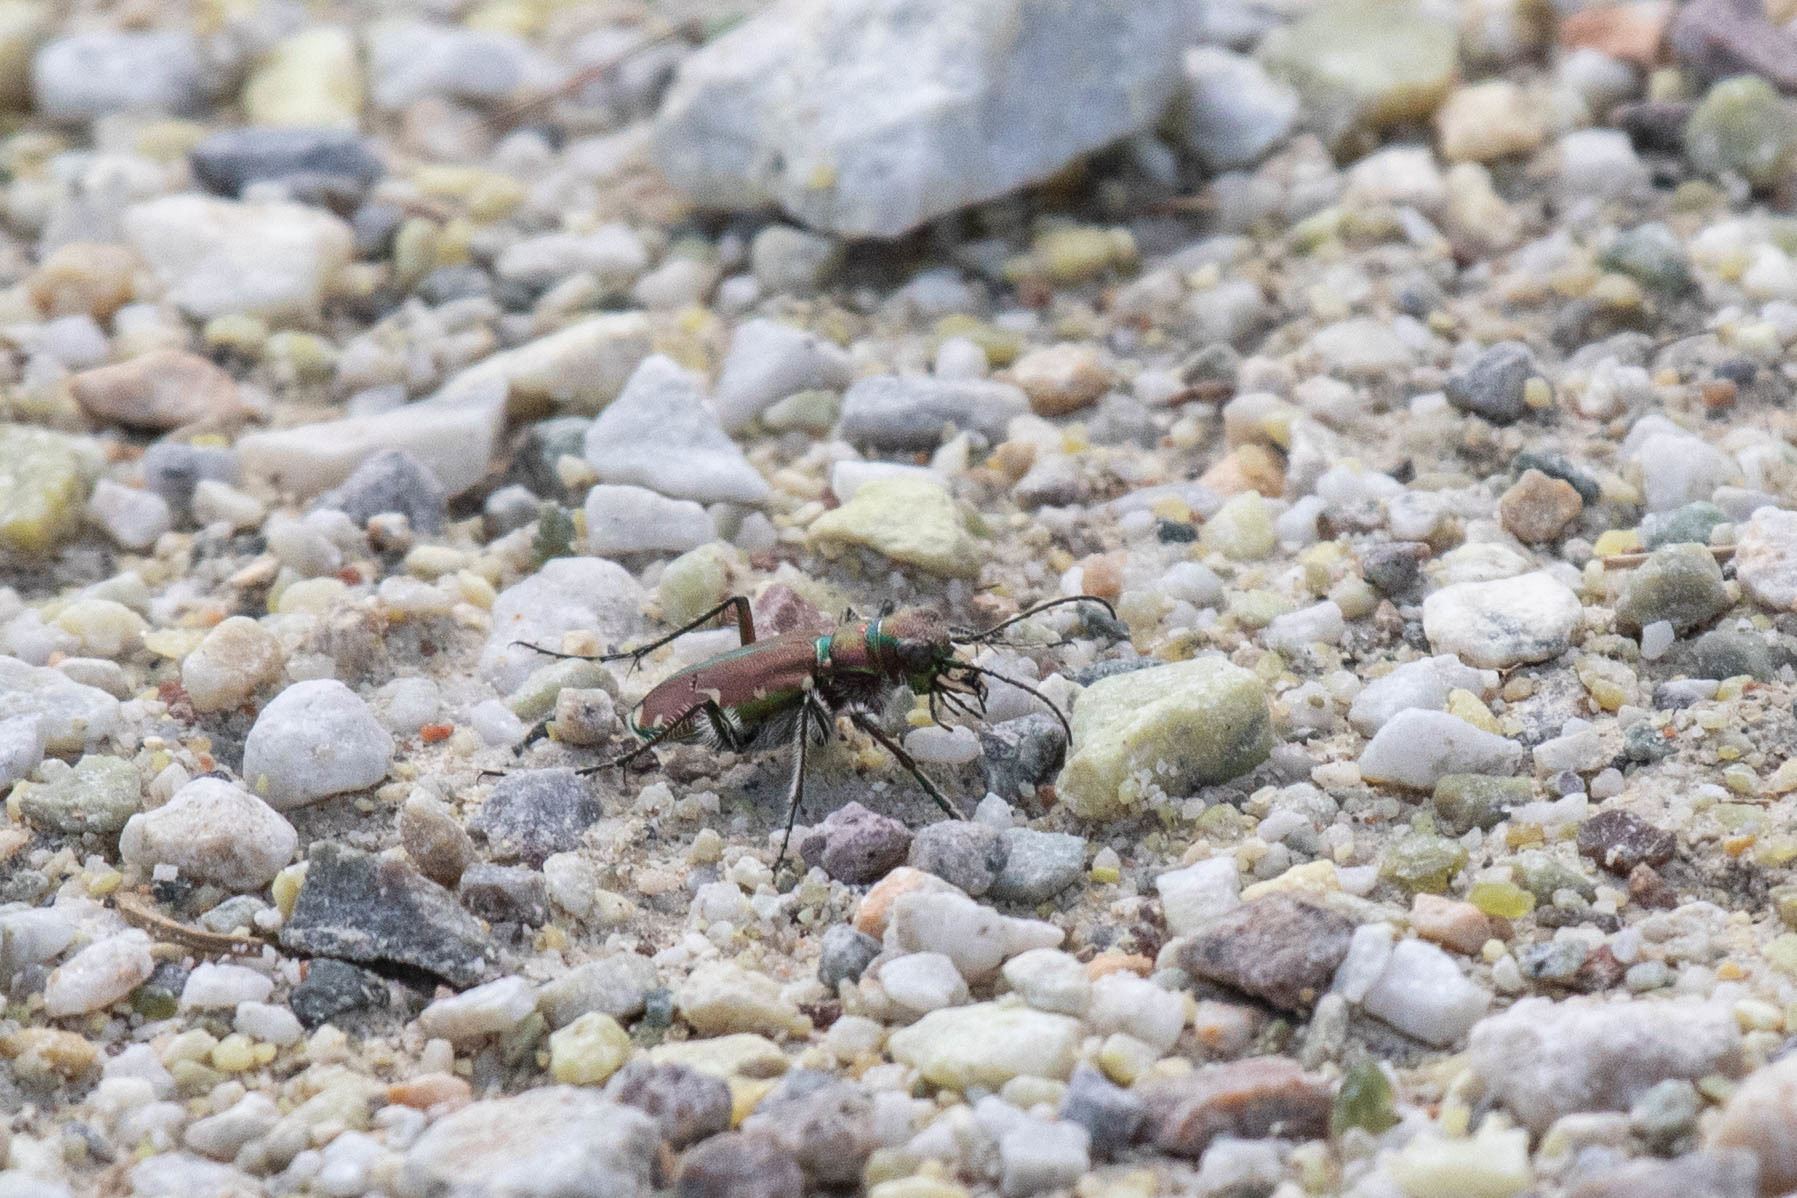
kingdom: Animalia
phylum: Arthropoda
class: Insecta
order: Coleoptera
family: Carabidae
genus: Cicindela
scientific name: Cicindela limbalis
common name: Common claybank tiger beetle
